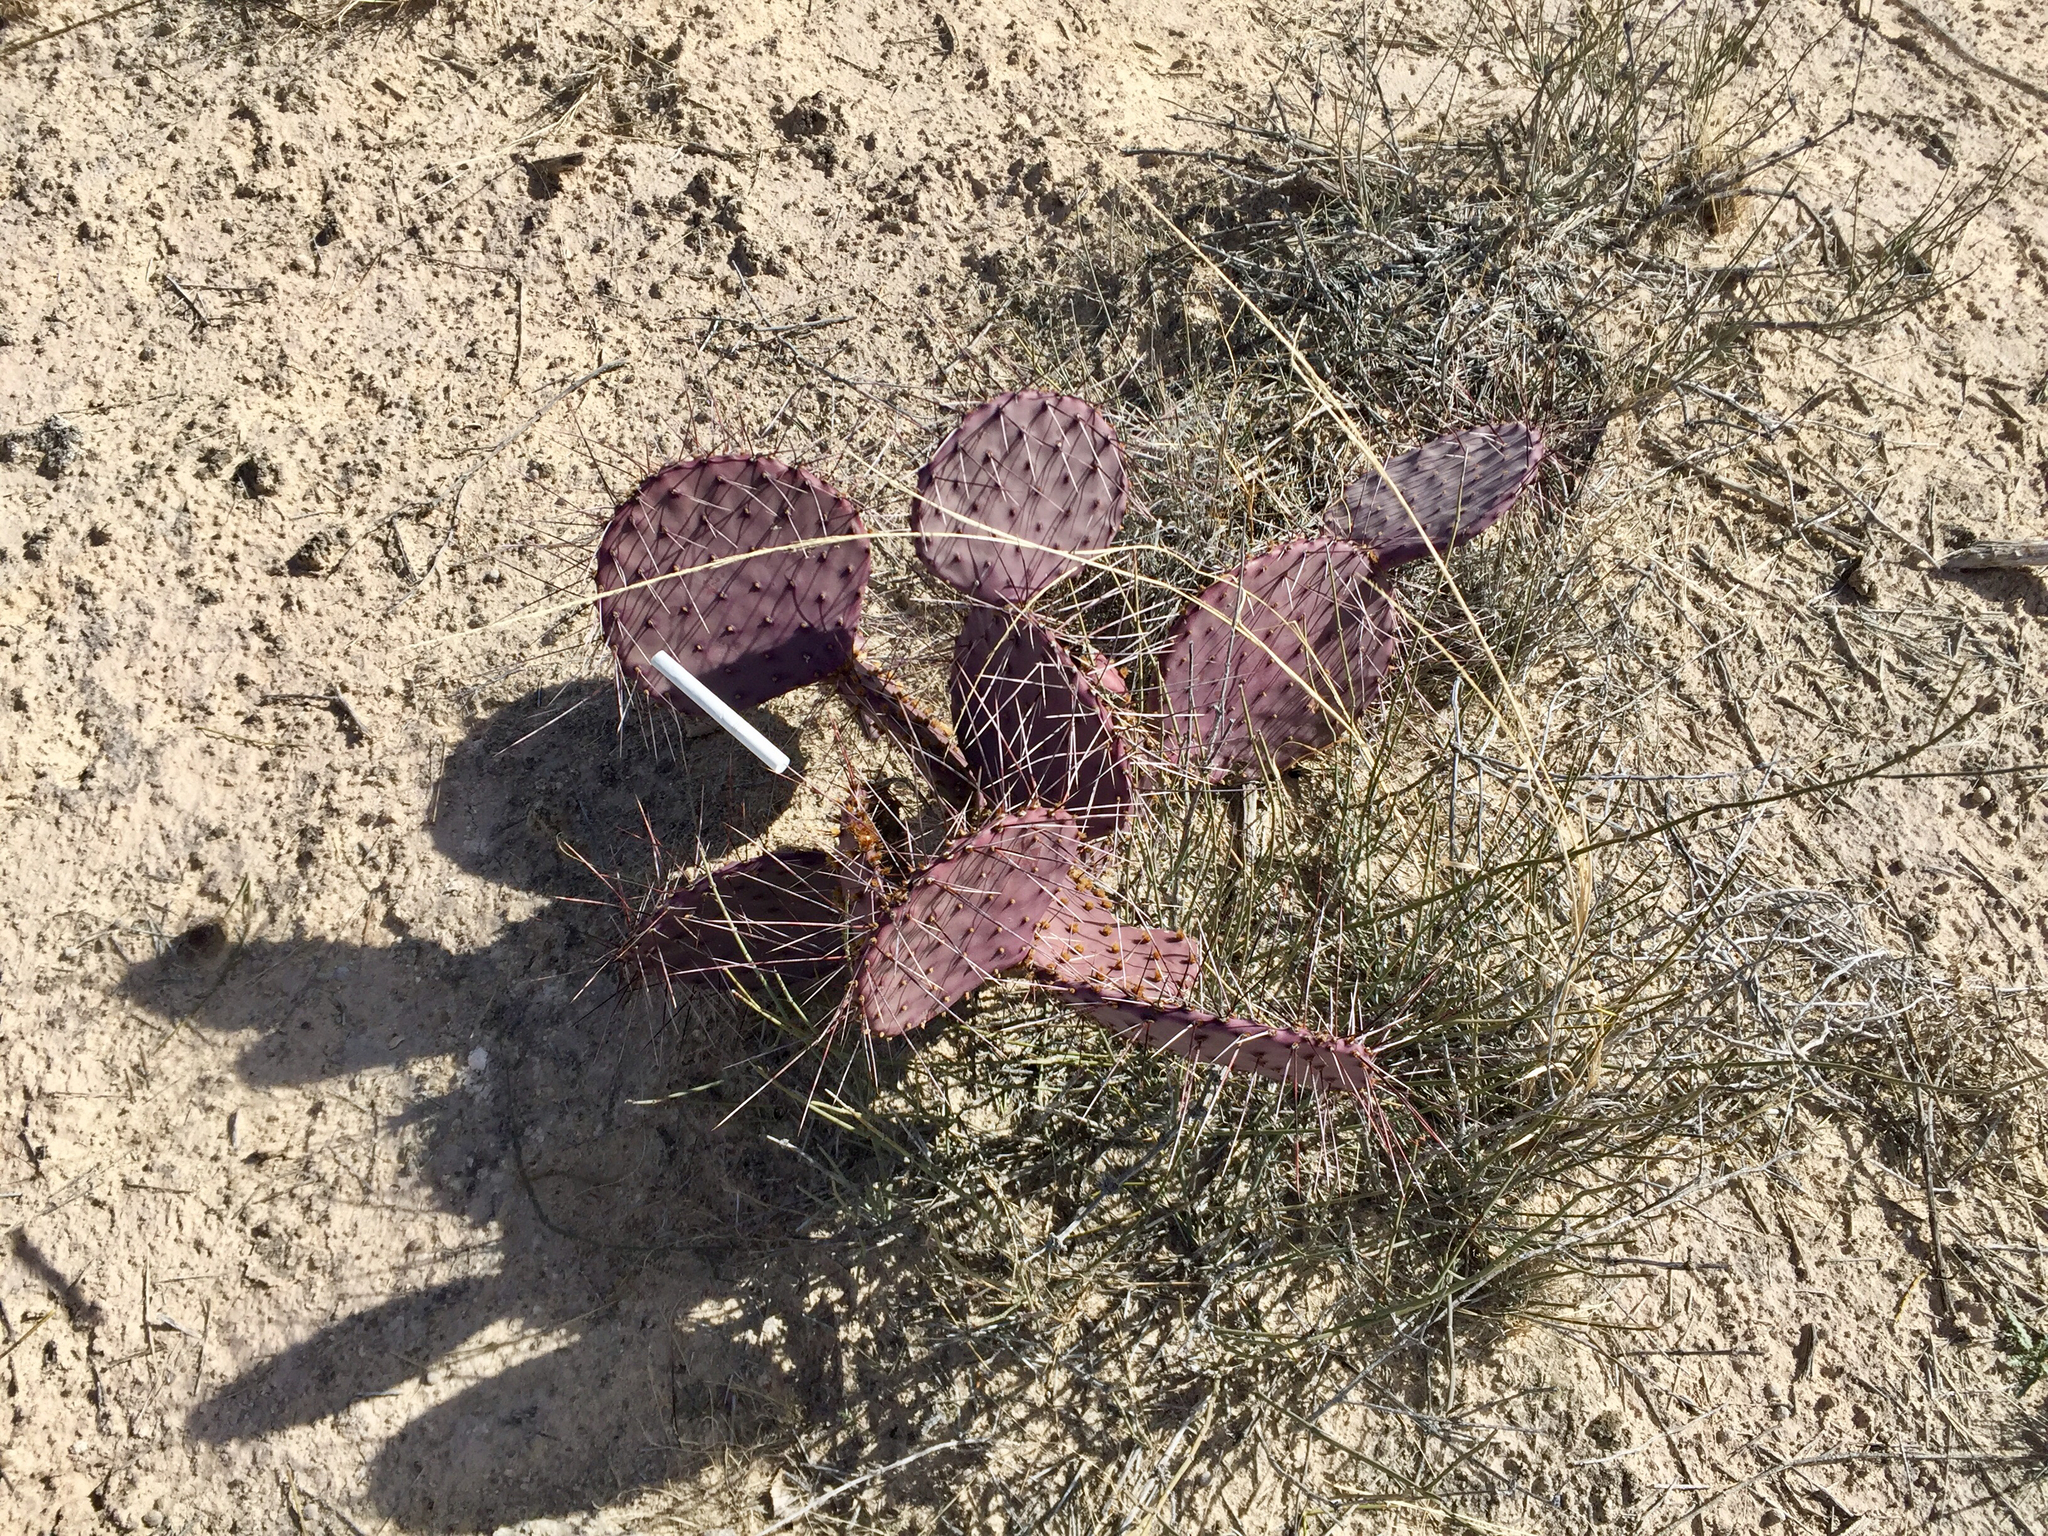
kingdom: Plantae
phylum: Tracheophyta
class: Magnoliopsida
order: Caryophyllales
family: Cactaceae
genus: Opuntia
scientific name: Opuntia macrocentra
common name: Purple prickly-pear
